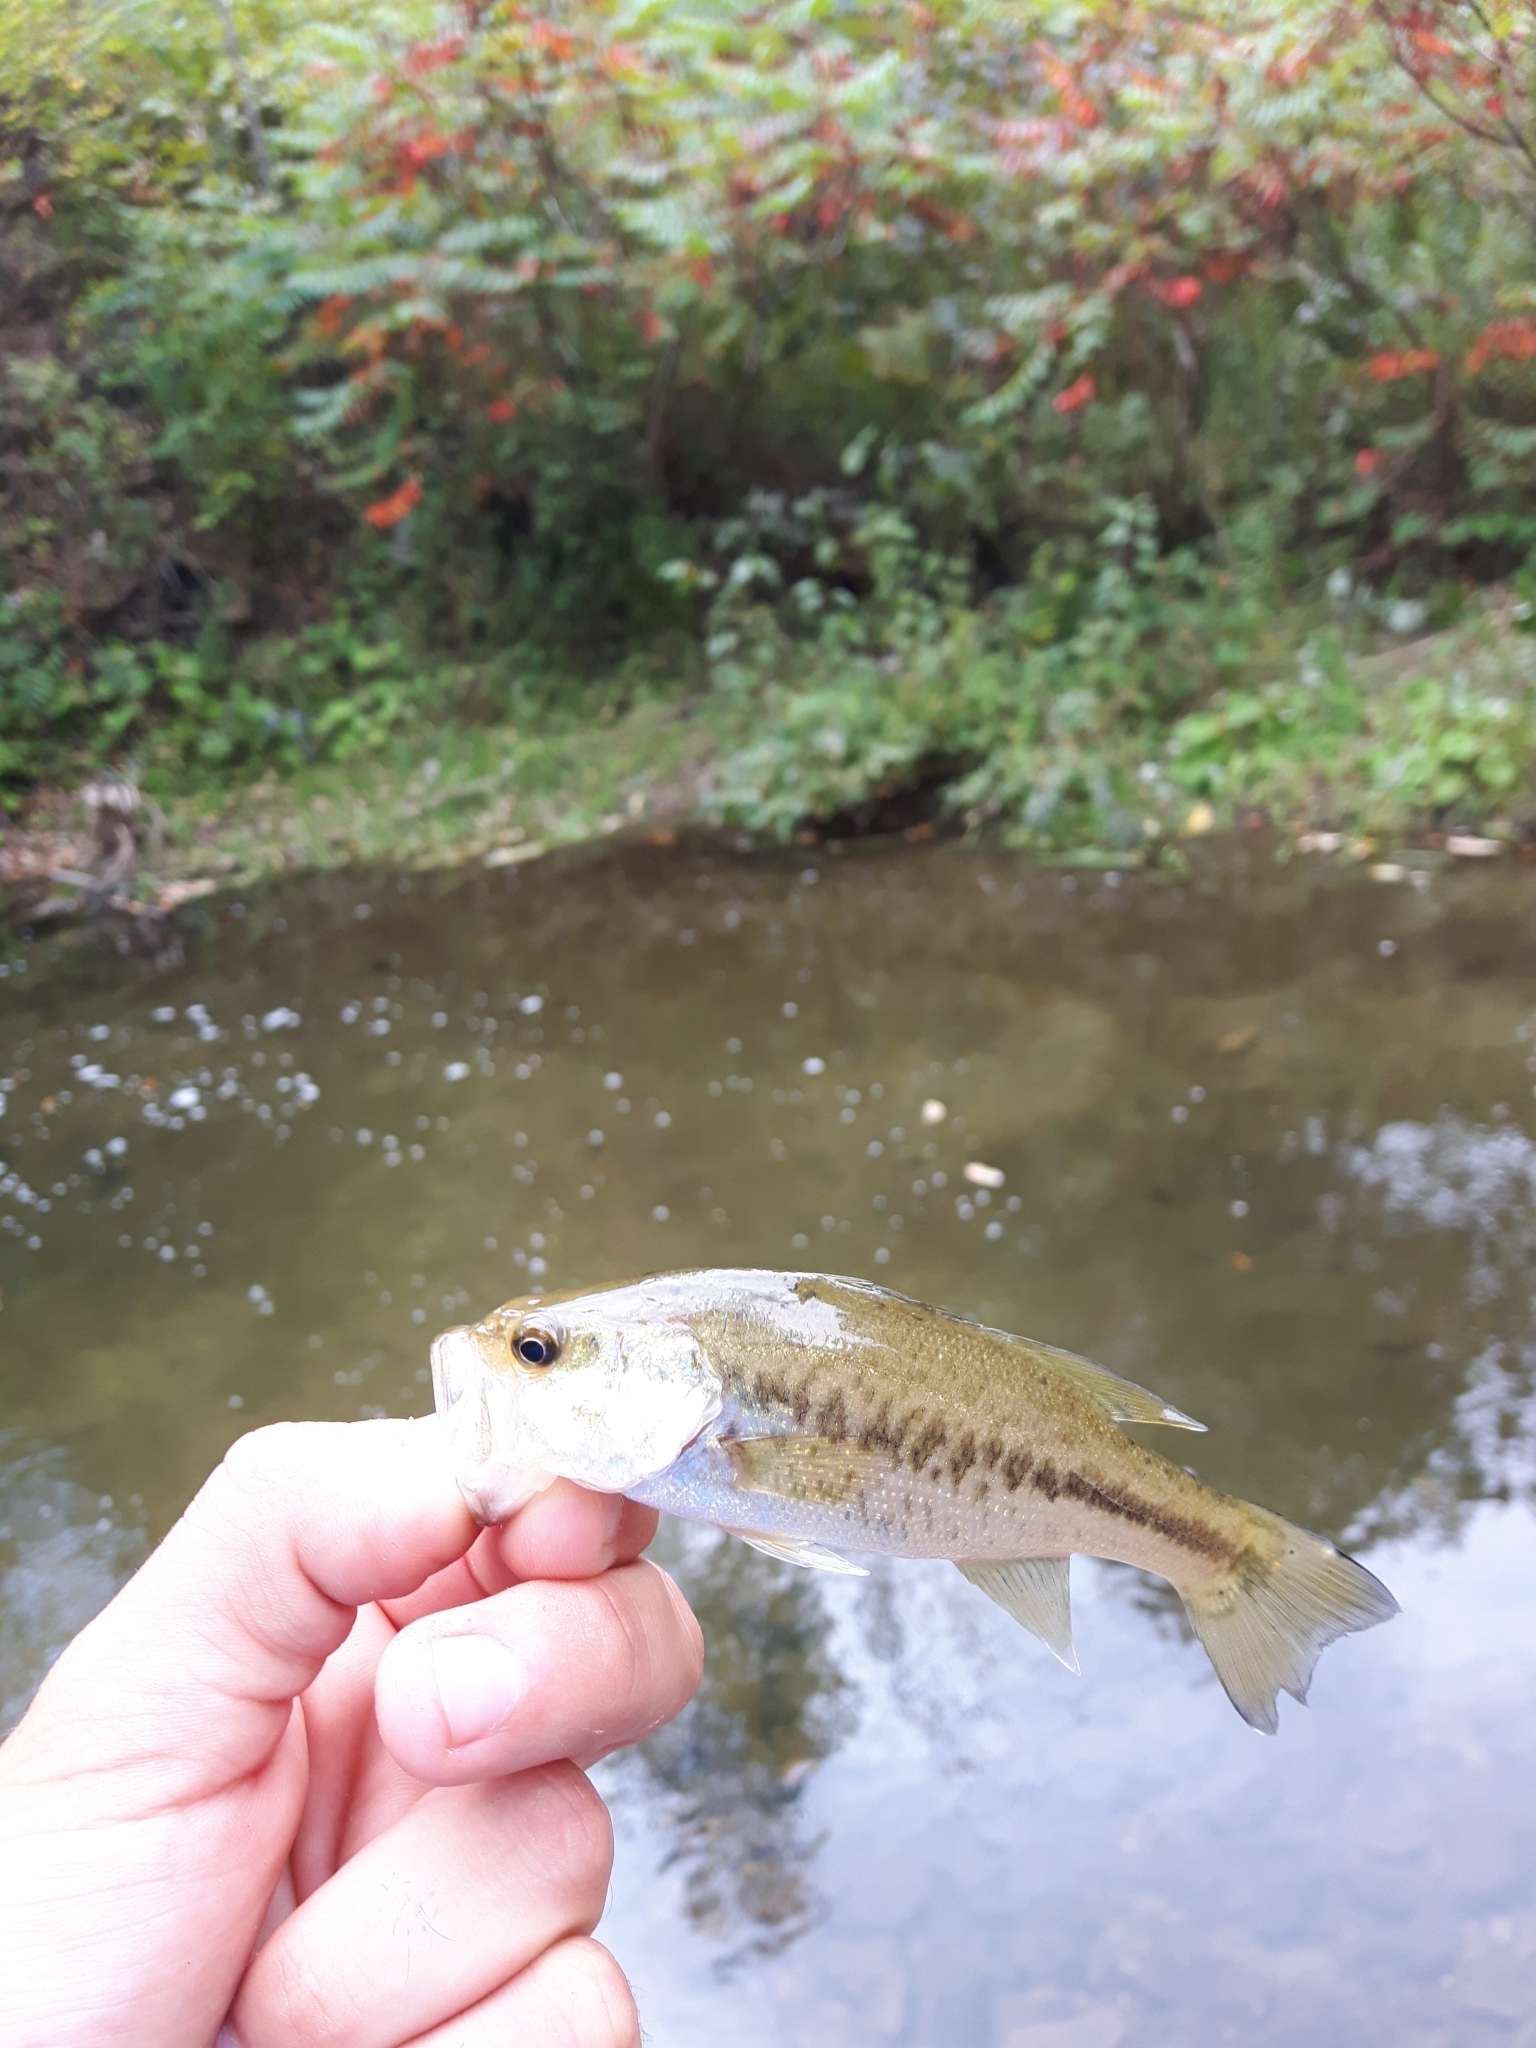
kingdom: Animalia
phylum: Chordata
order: Perciformes
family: Centrarchidae
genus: Micropterus
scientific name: Micropterus
